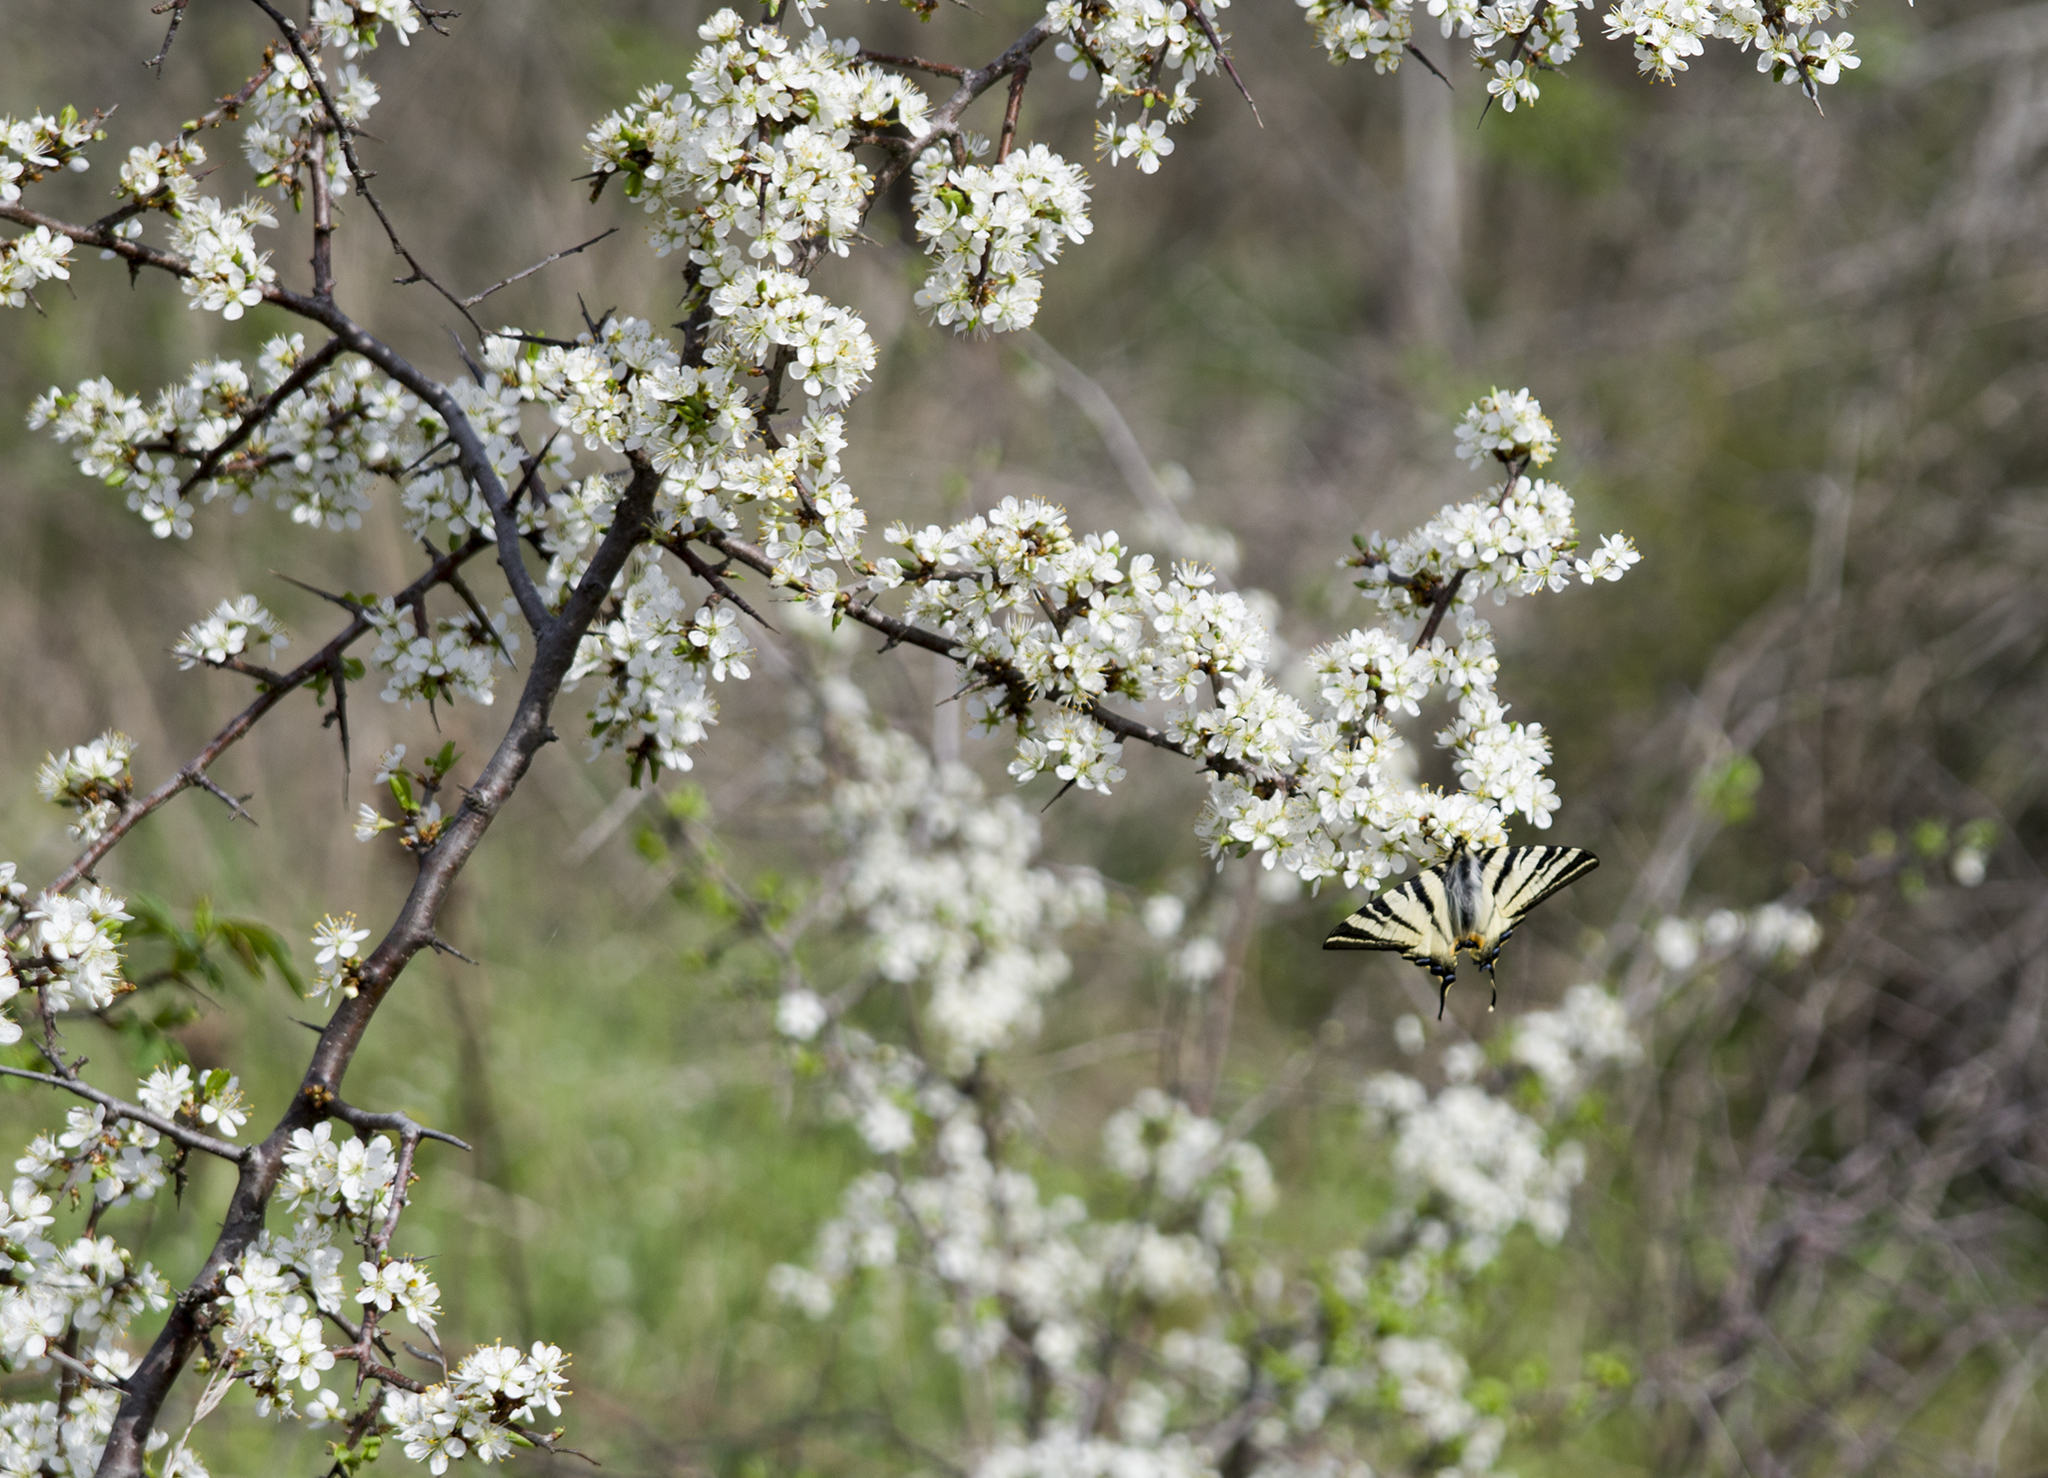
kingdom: Animalia
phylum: Arthropoda
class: Insecta
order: Lepidoptera
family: Papilionidae
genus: Iphiclides
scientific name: Iphiclides podalirius
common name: Scarce swallowtail
